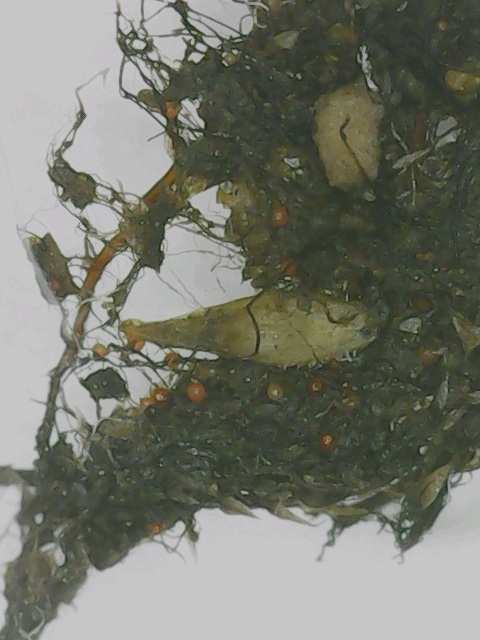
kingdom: Plantae
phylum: Bryophyta
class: Bryopsida
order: Bryales
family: Bryaceae
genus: Rosulabryum
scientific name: Rosulabryum rubens
